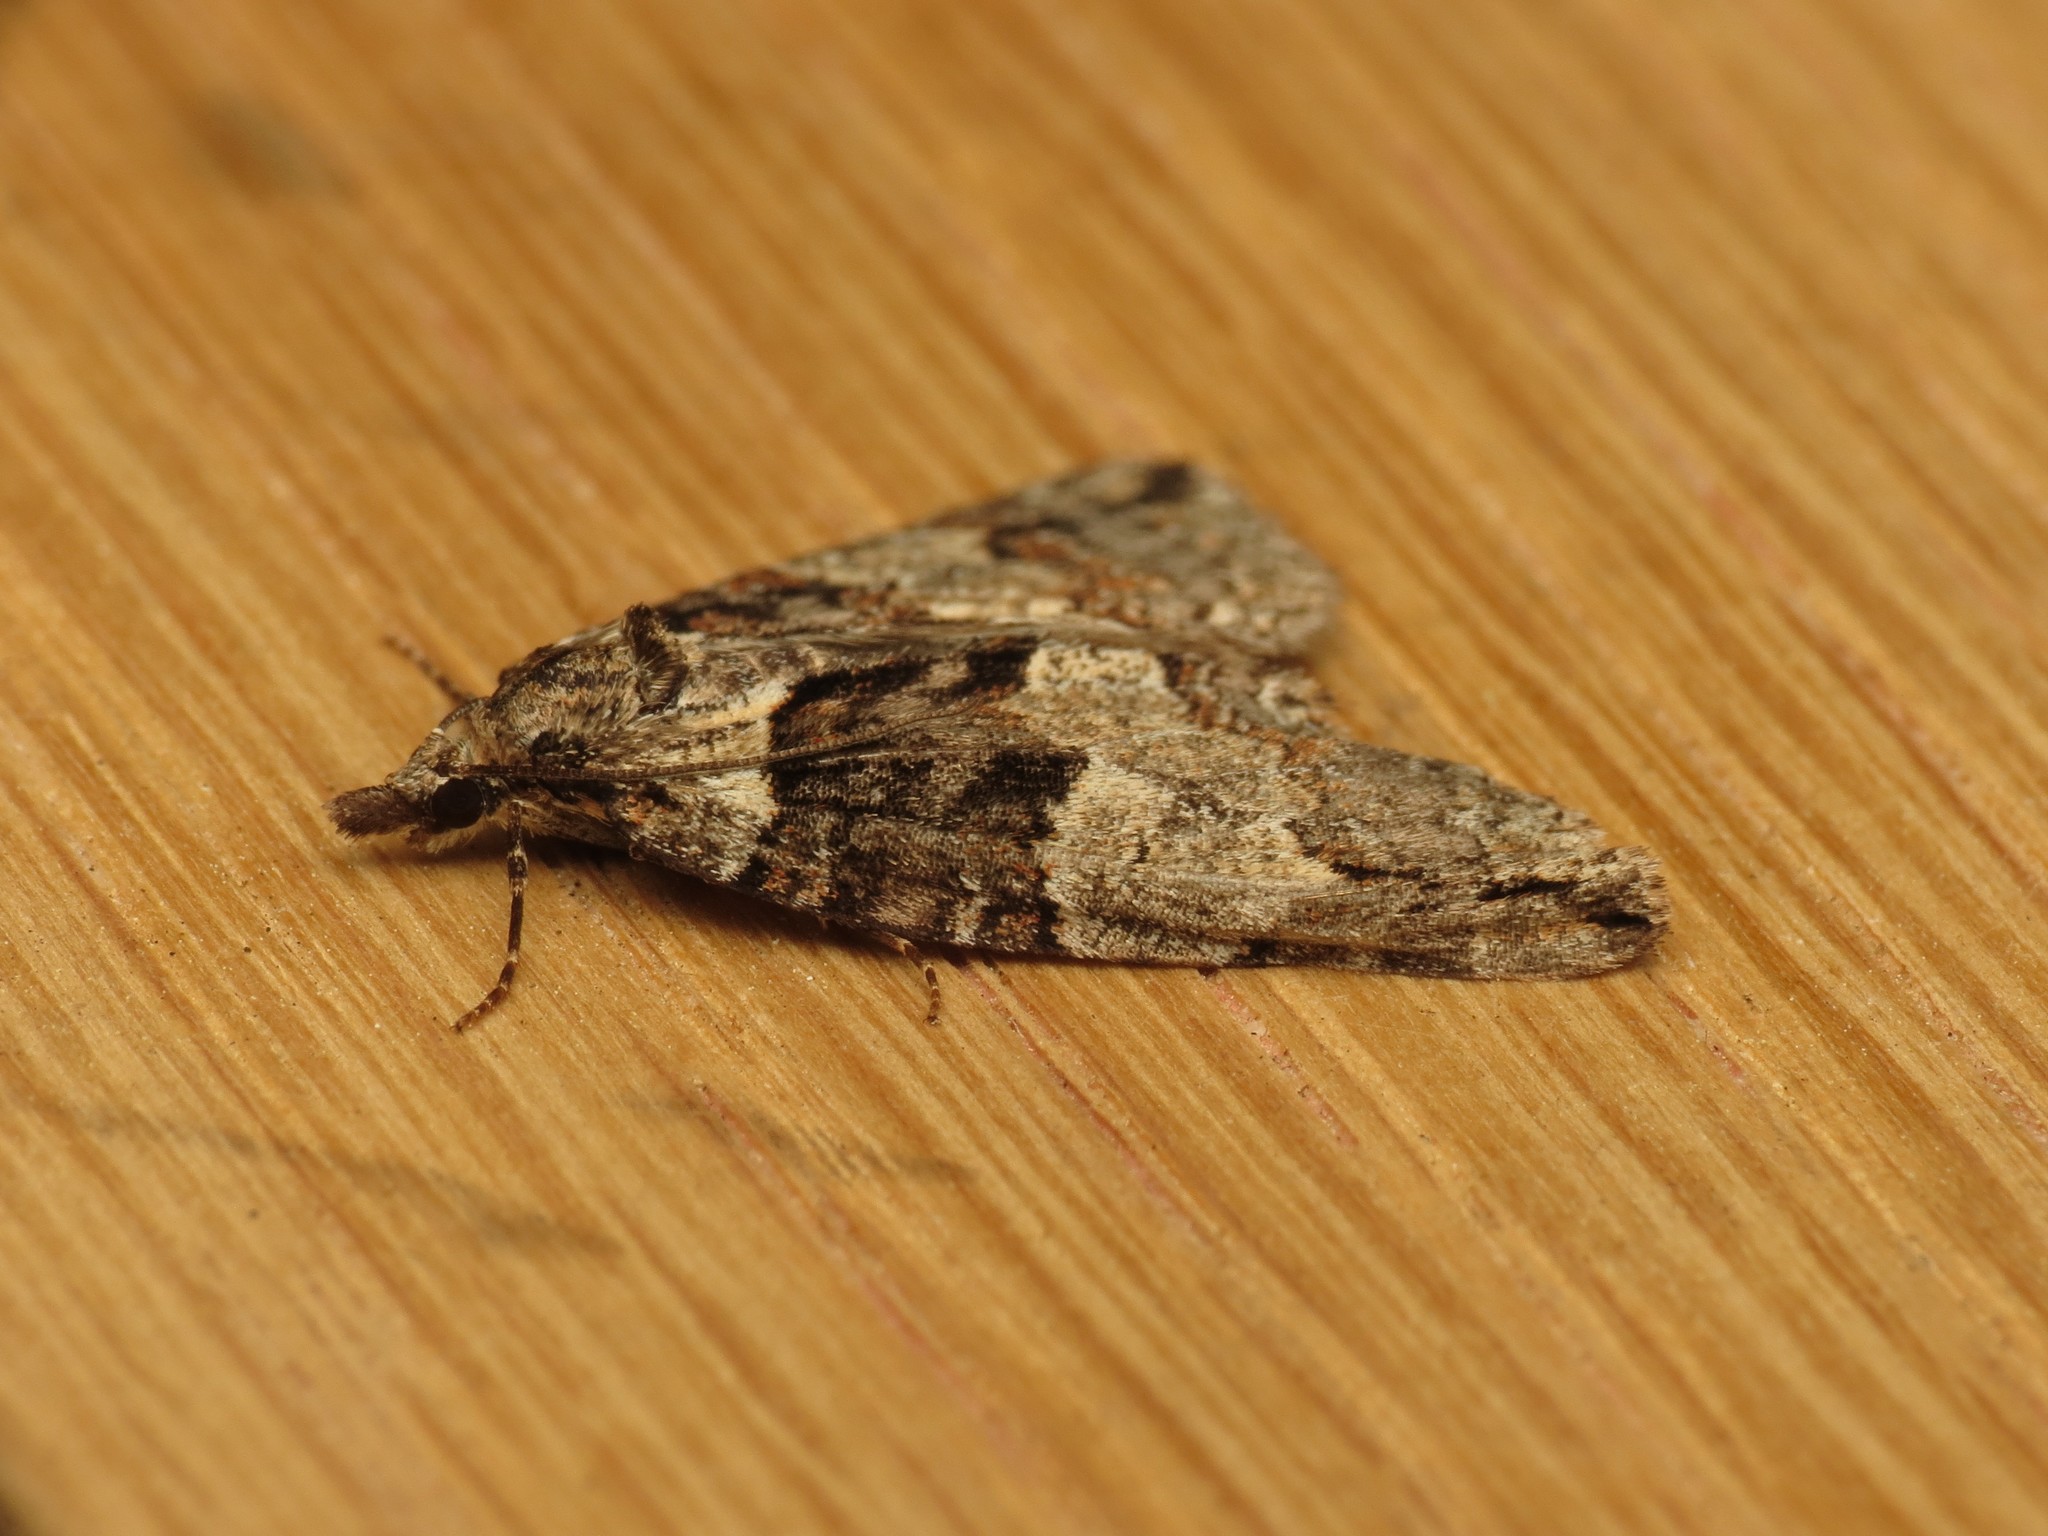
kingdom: Animalia
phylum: Arthropoda
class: Insecta
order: Lepidoptera
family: Geometridae
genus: Hydriomena
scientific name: Hydriomena ruberata
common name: Ruddy highflyer
